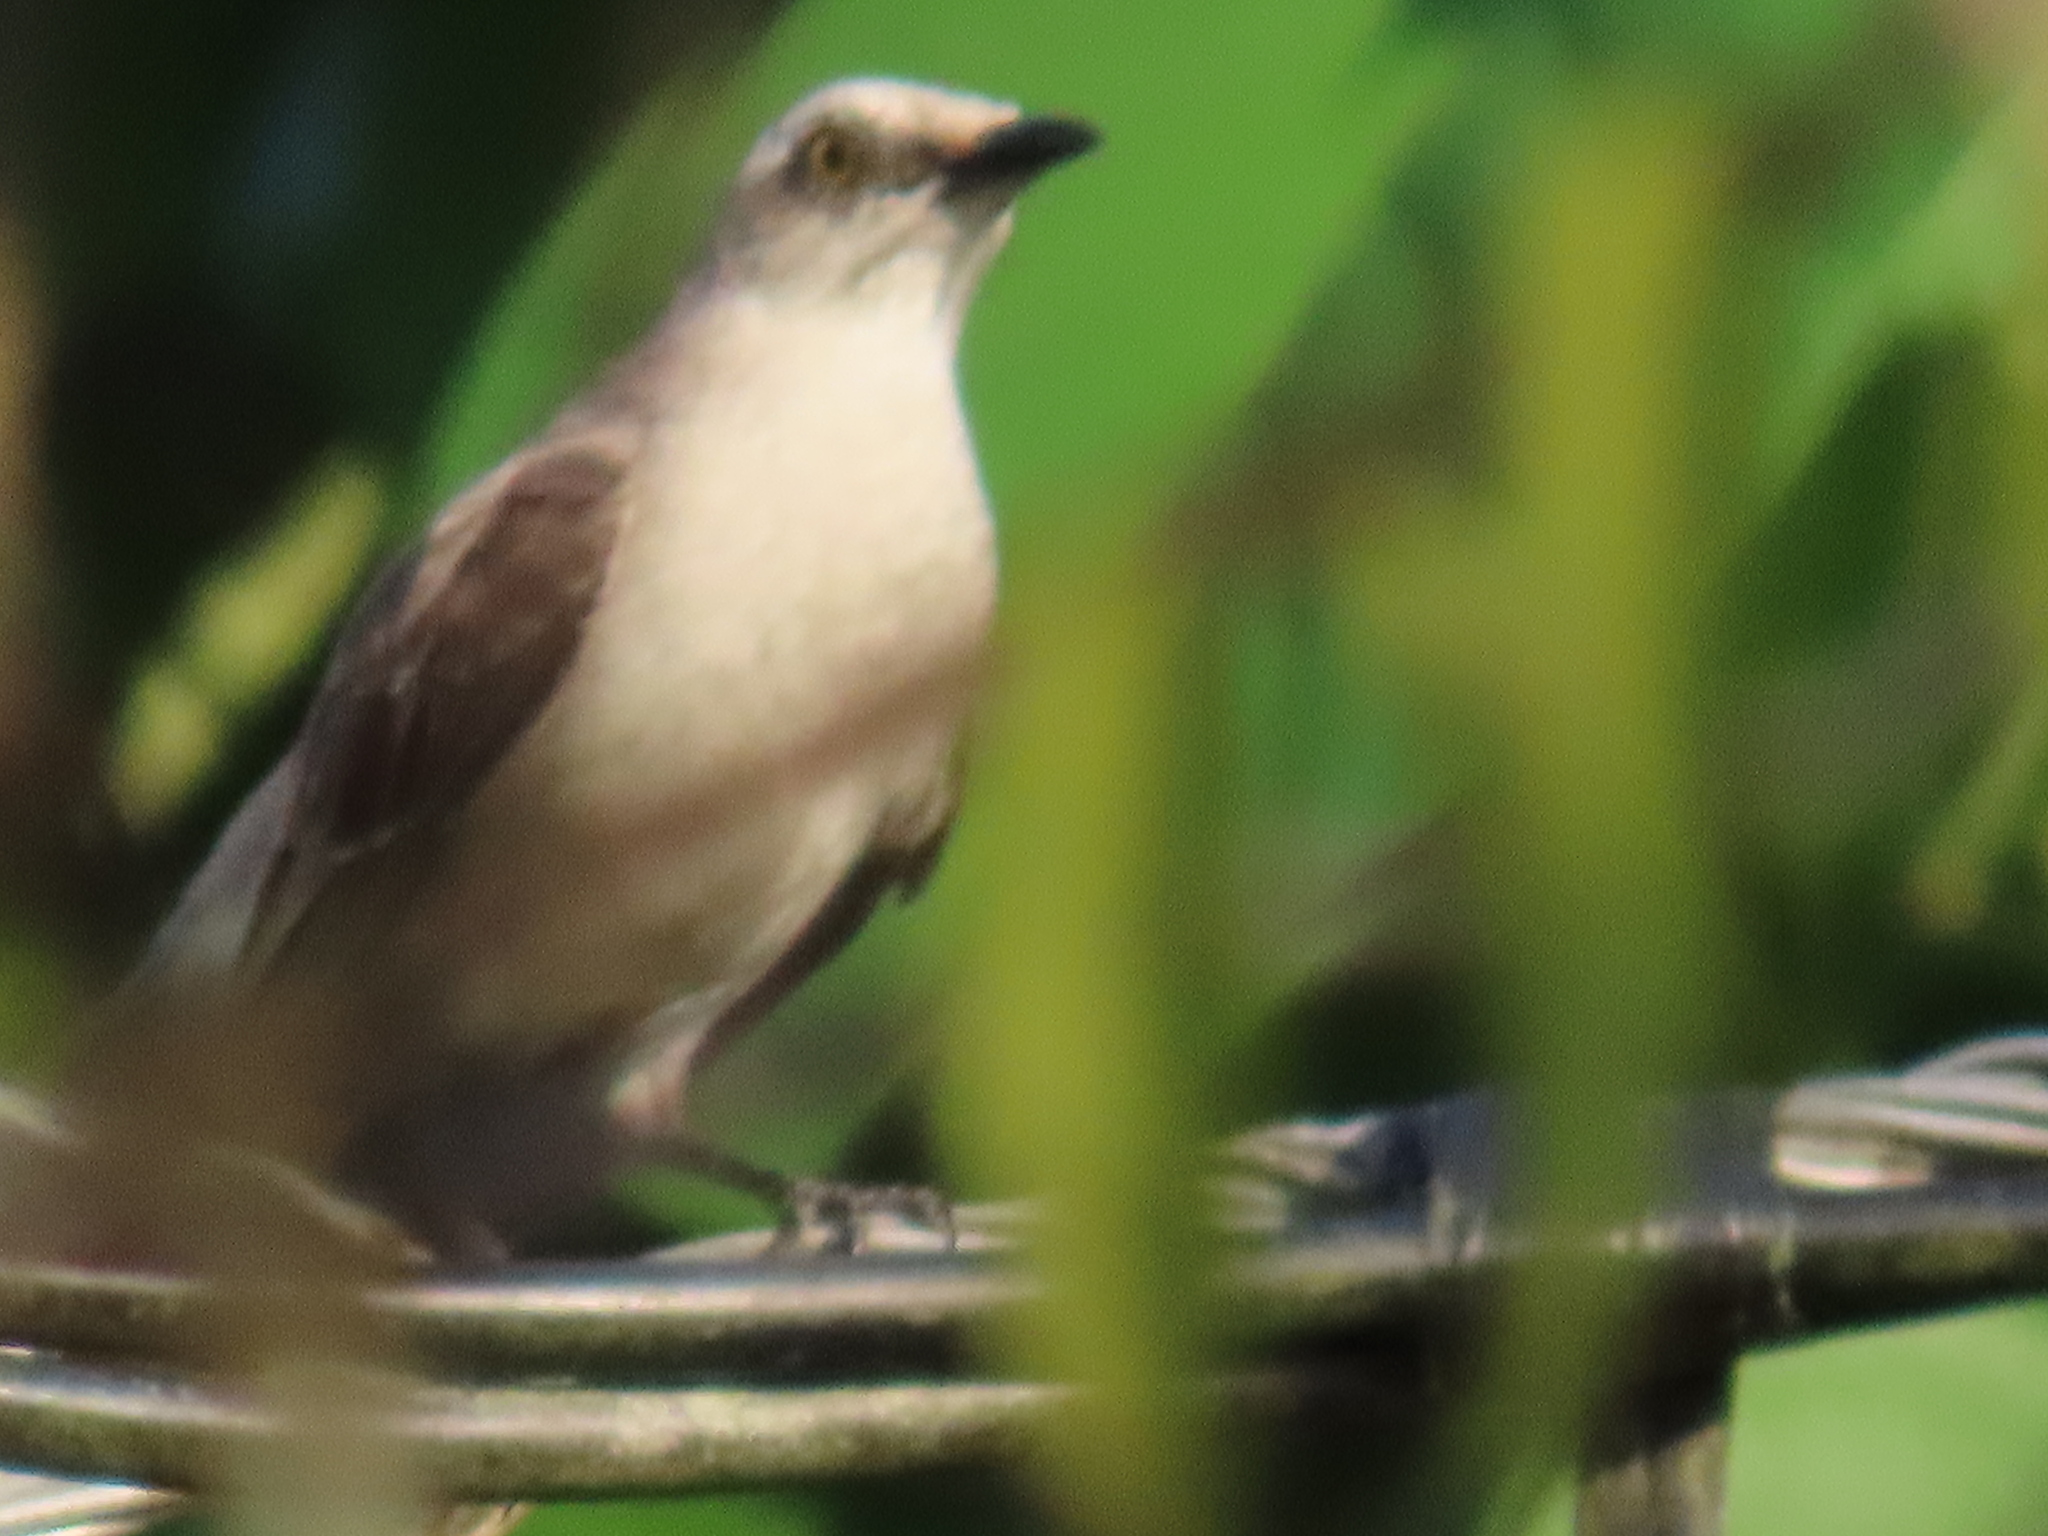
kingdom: Animalia
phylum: Chordata
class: Aves
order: Passeriformes
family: Mimidae
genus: Mimus
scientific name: Mimus gilvus
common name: Tropical mockingbird
